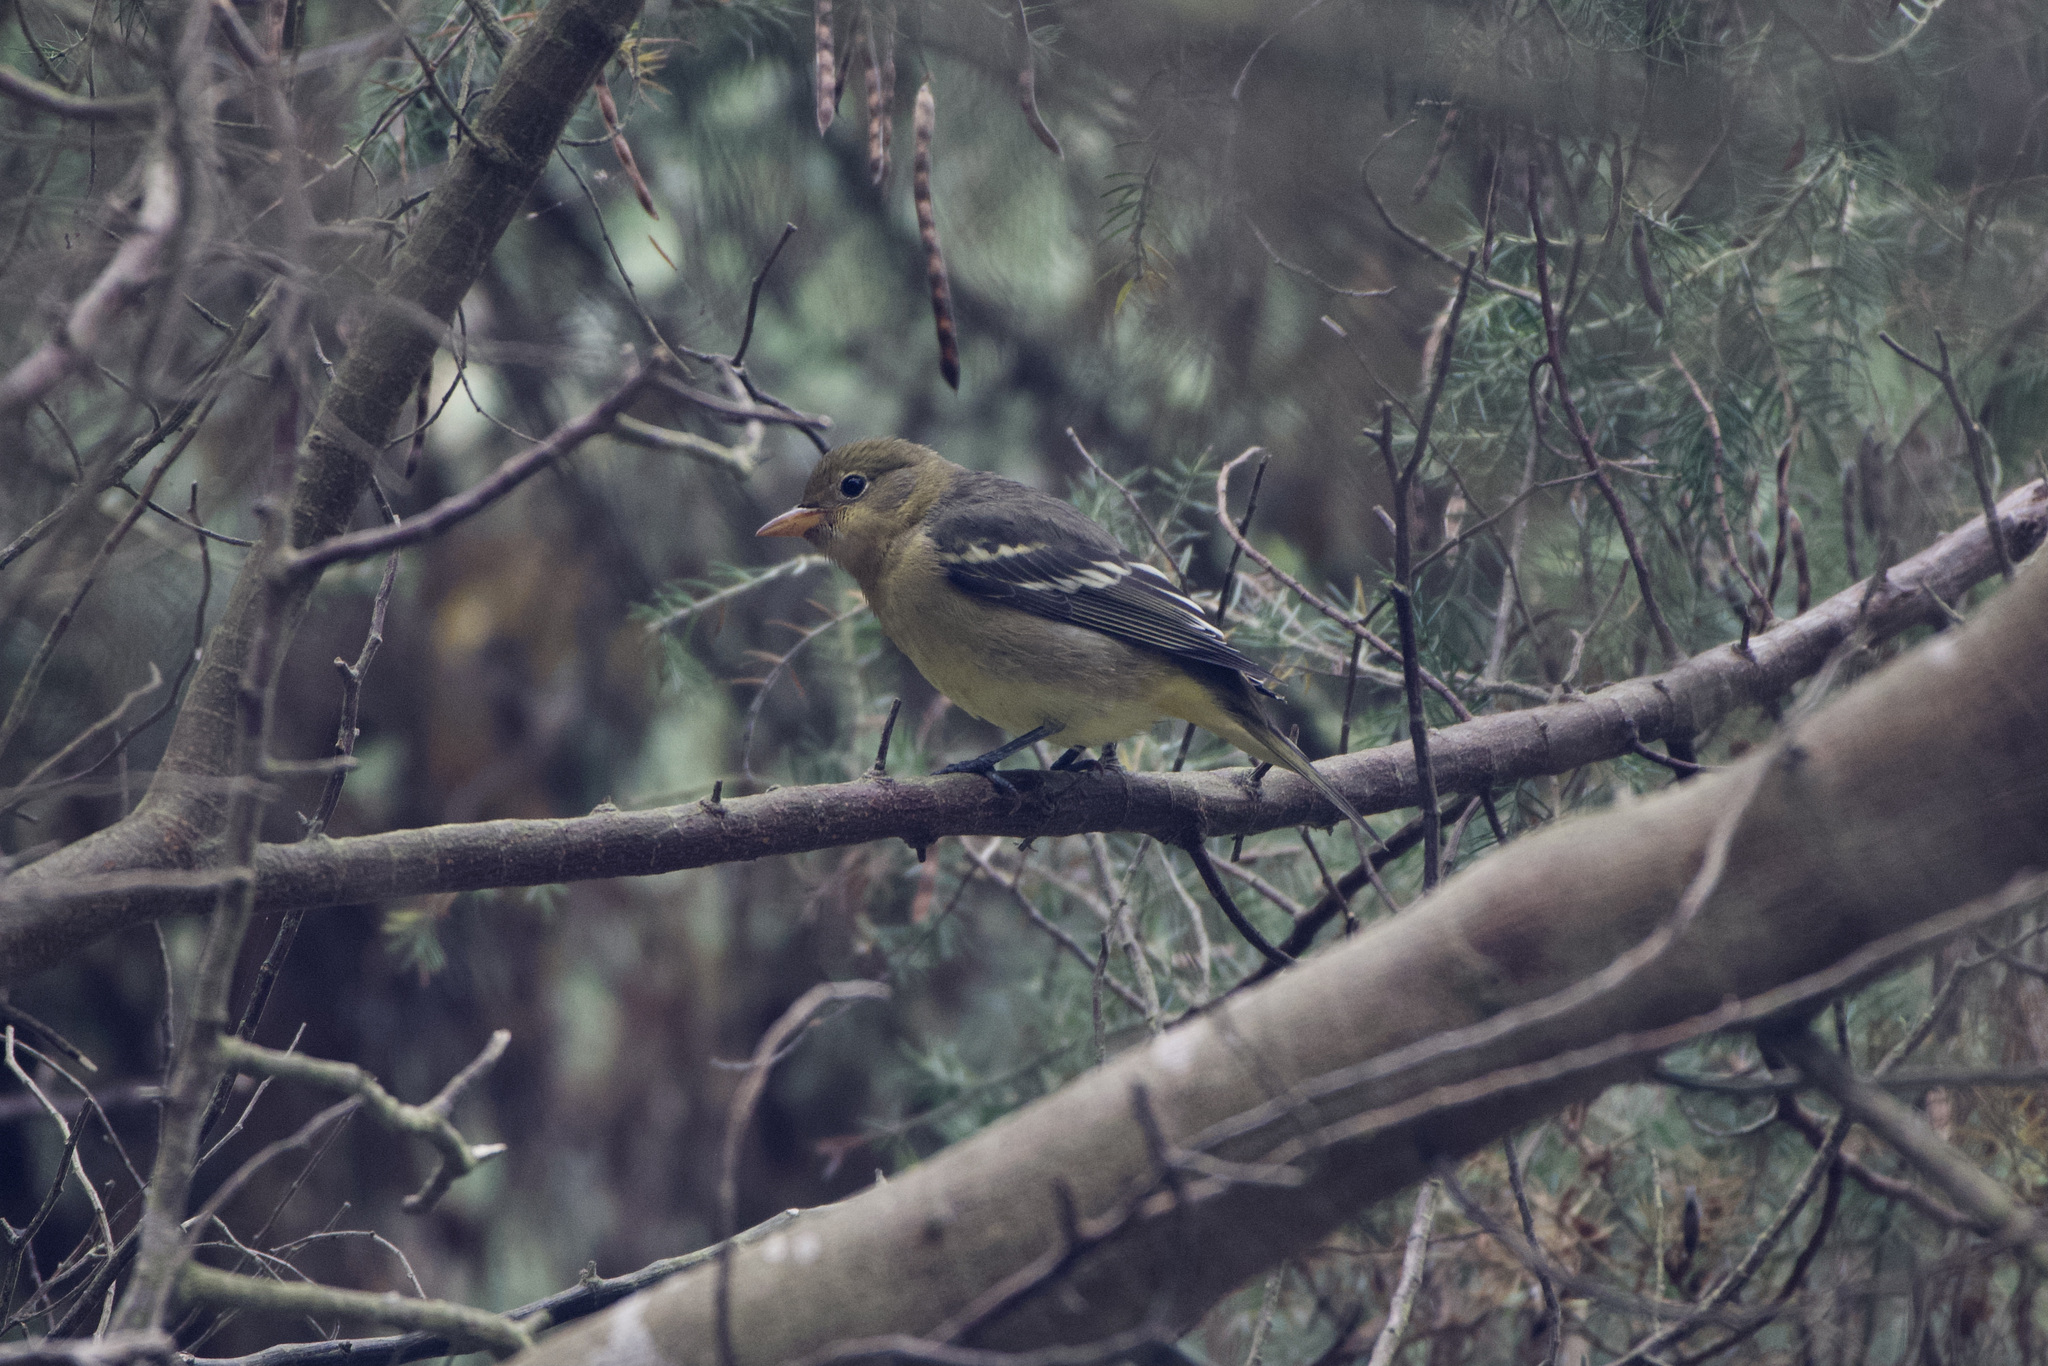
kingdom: Animalia
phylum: Chordata
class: Aves
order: Passeriformes
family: Cardinalidae
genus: Piranga
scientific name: Piranga ludoviciana
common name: Western tanager
